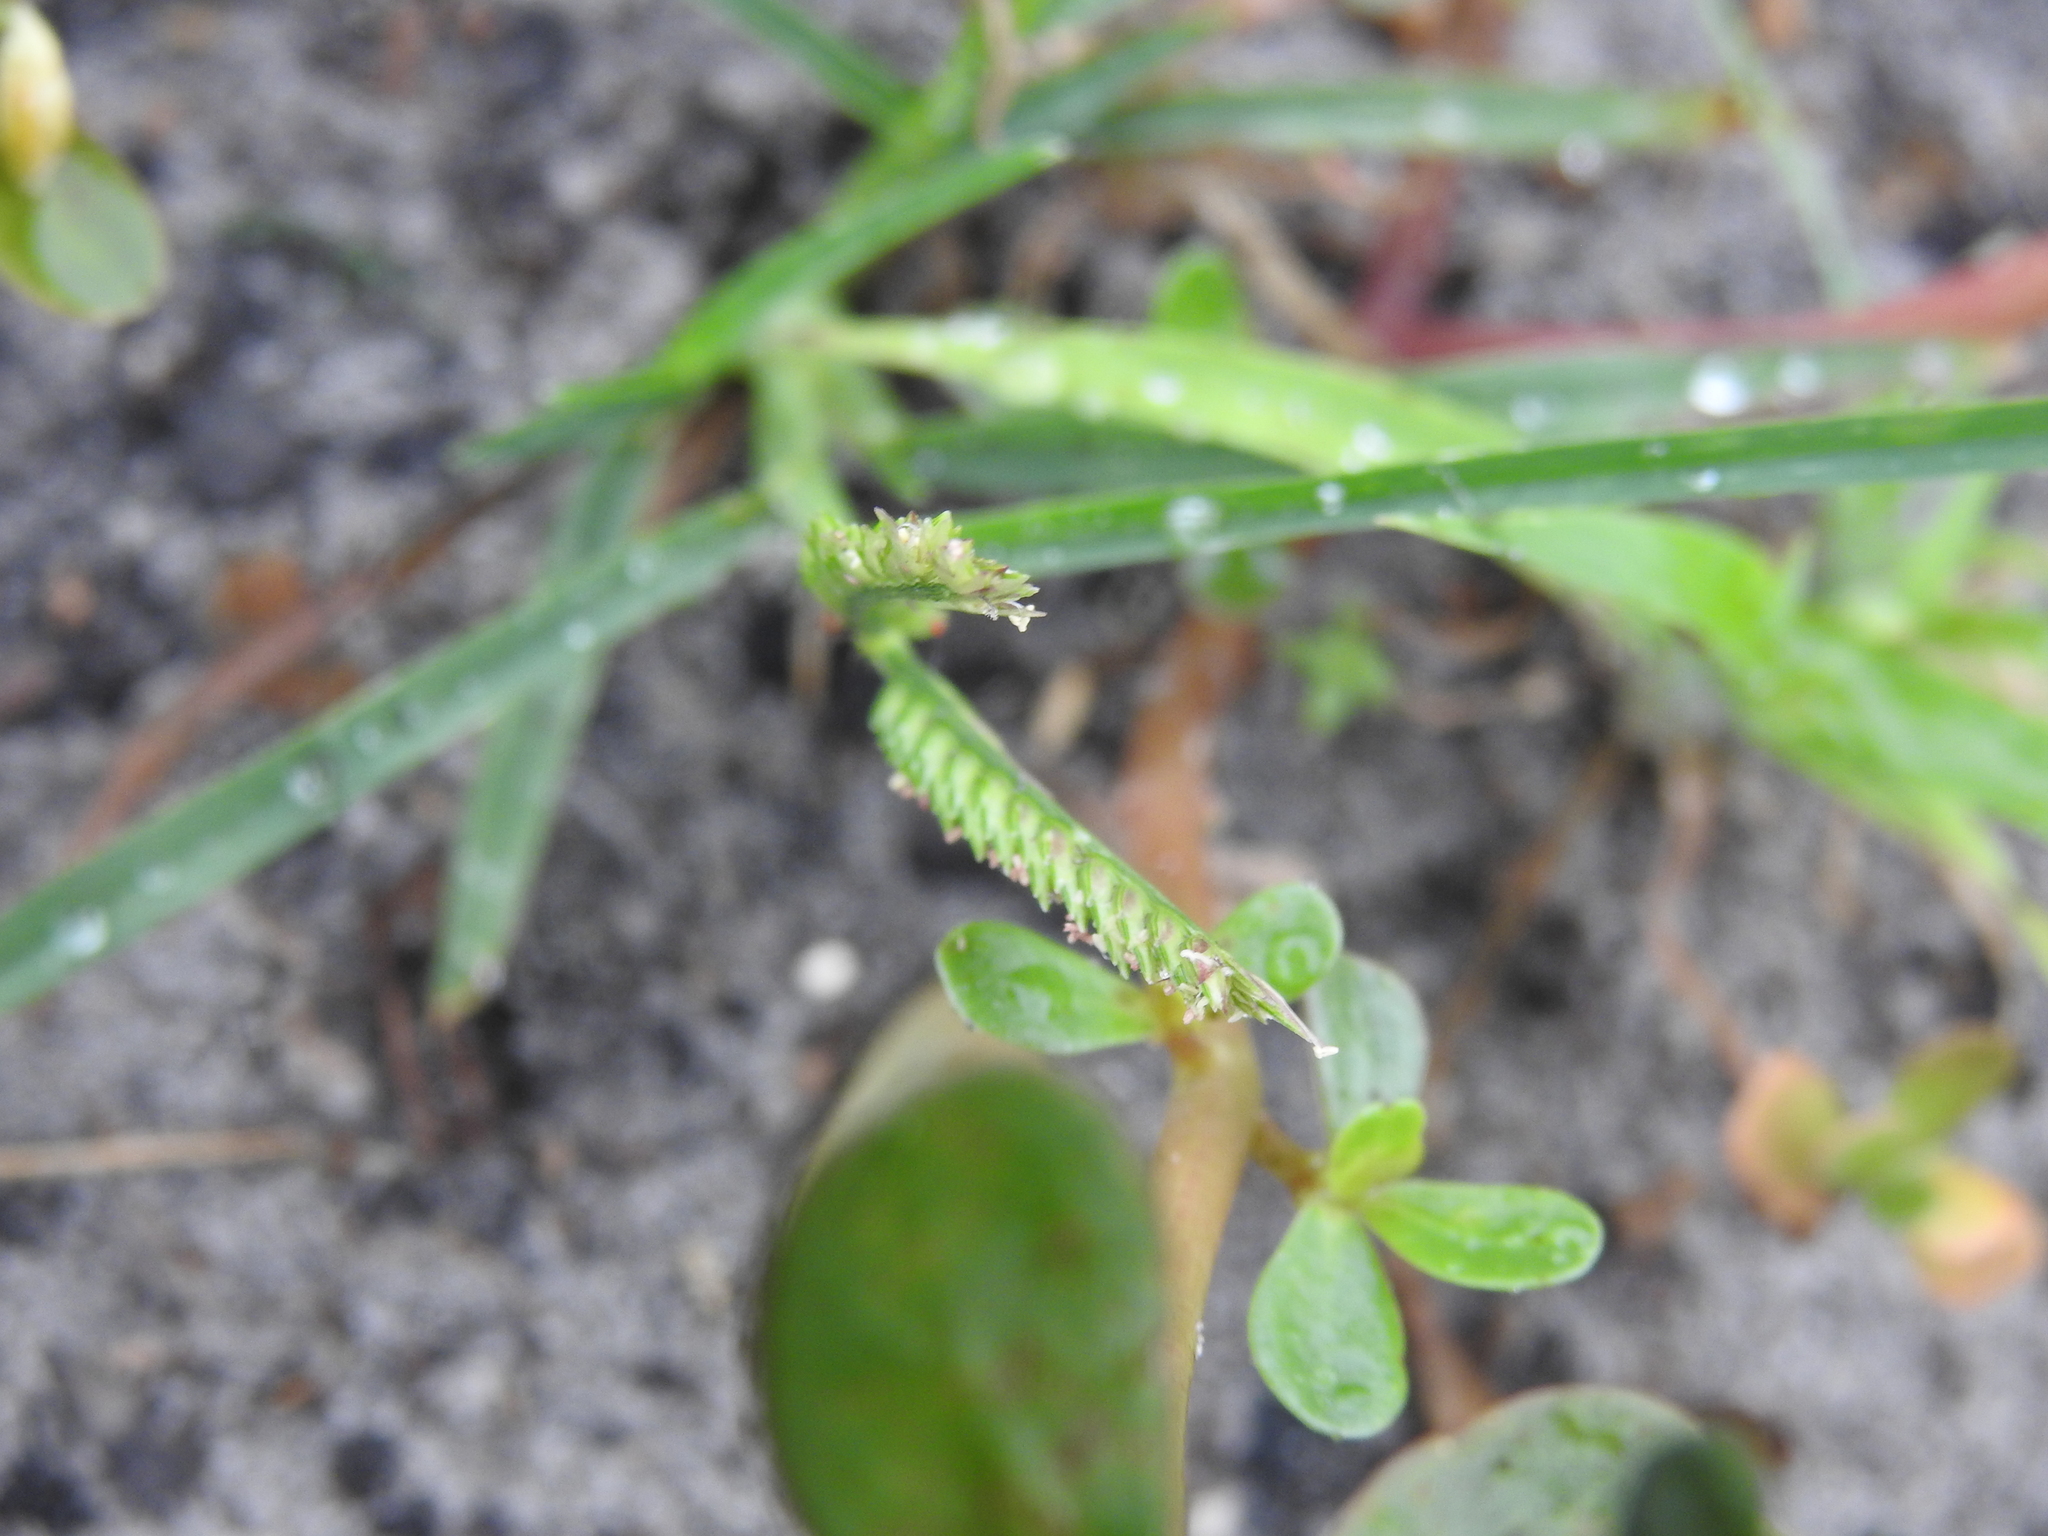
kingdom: Plantae
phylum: Tracheophyta
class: Liliopsida
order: Poales
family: Poaceae
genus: Eleusine
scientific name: Eleusine indica
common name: Yard-grass
